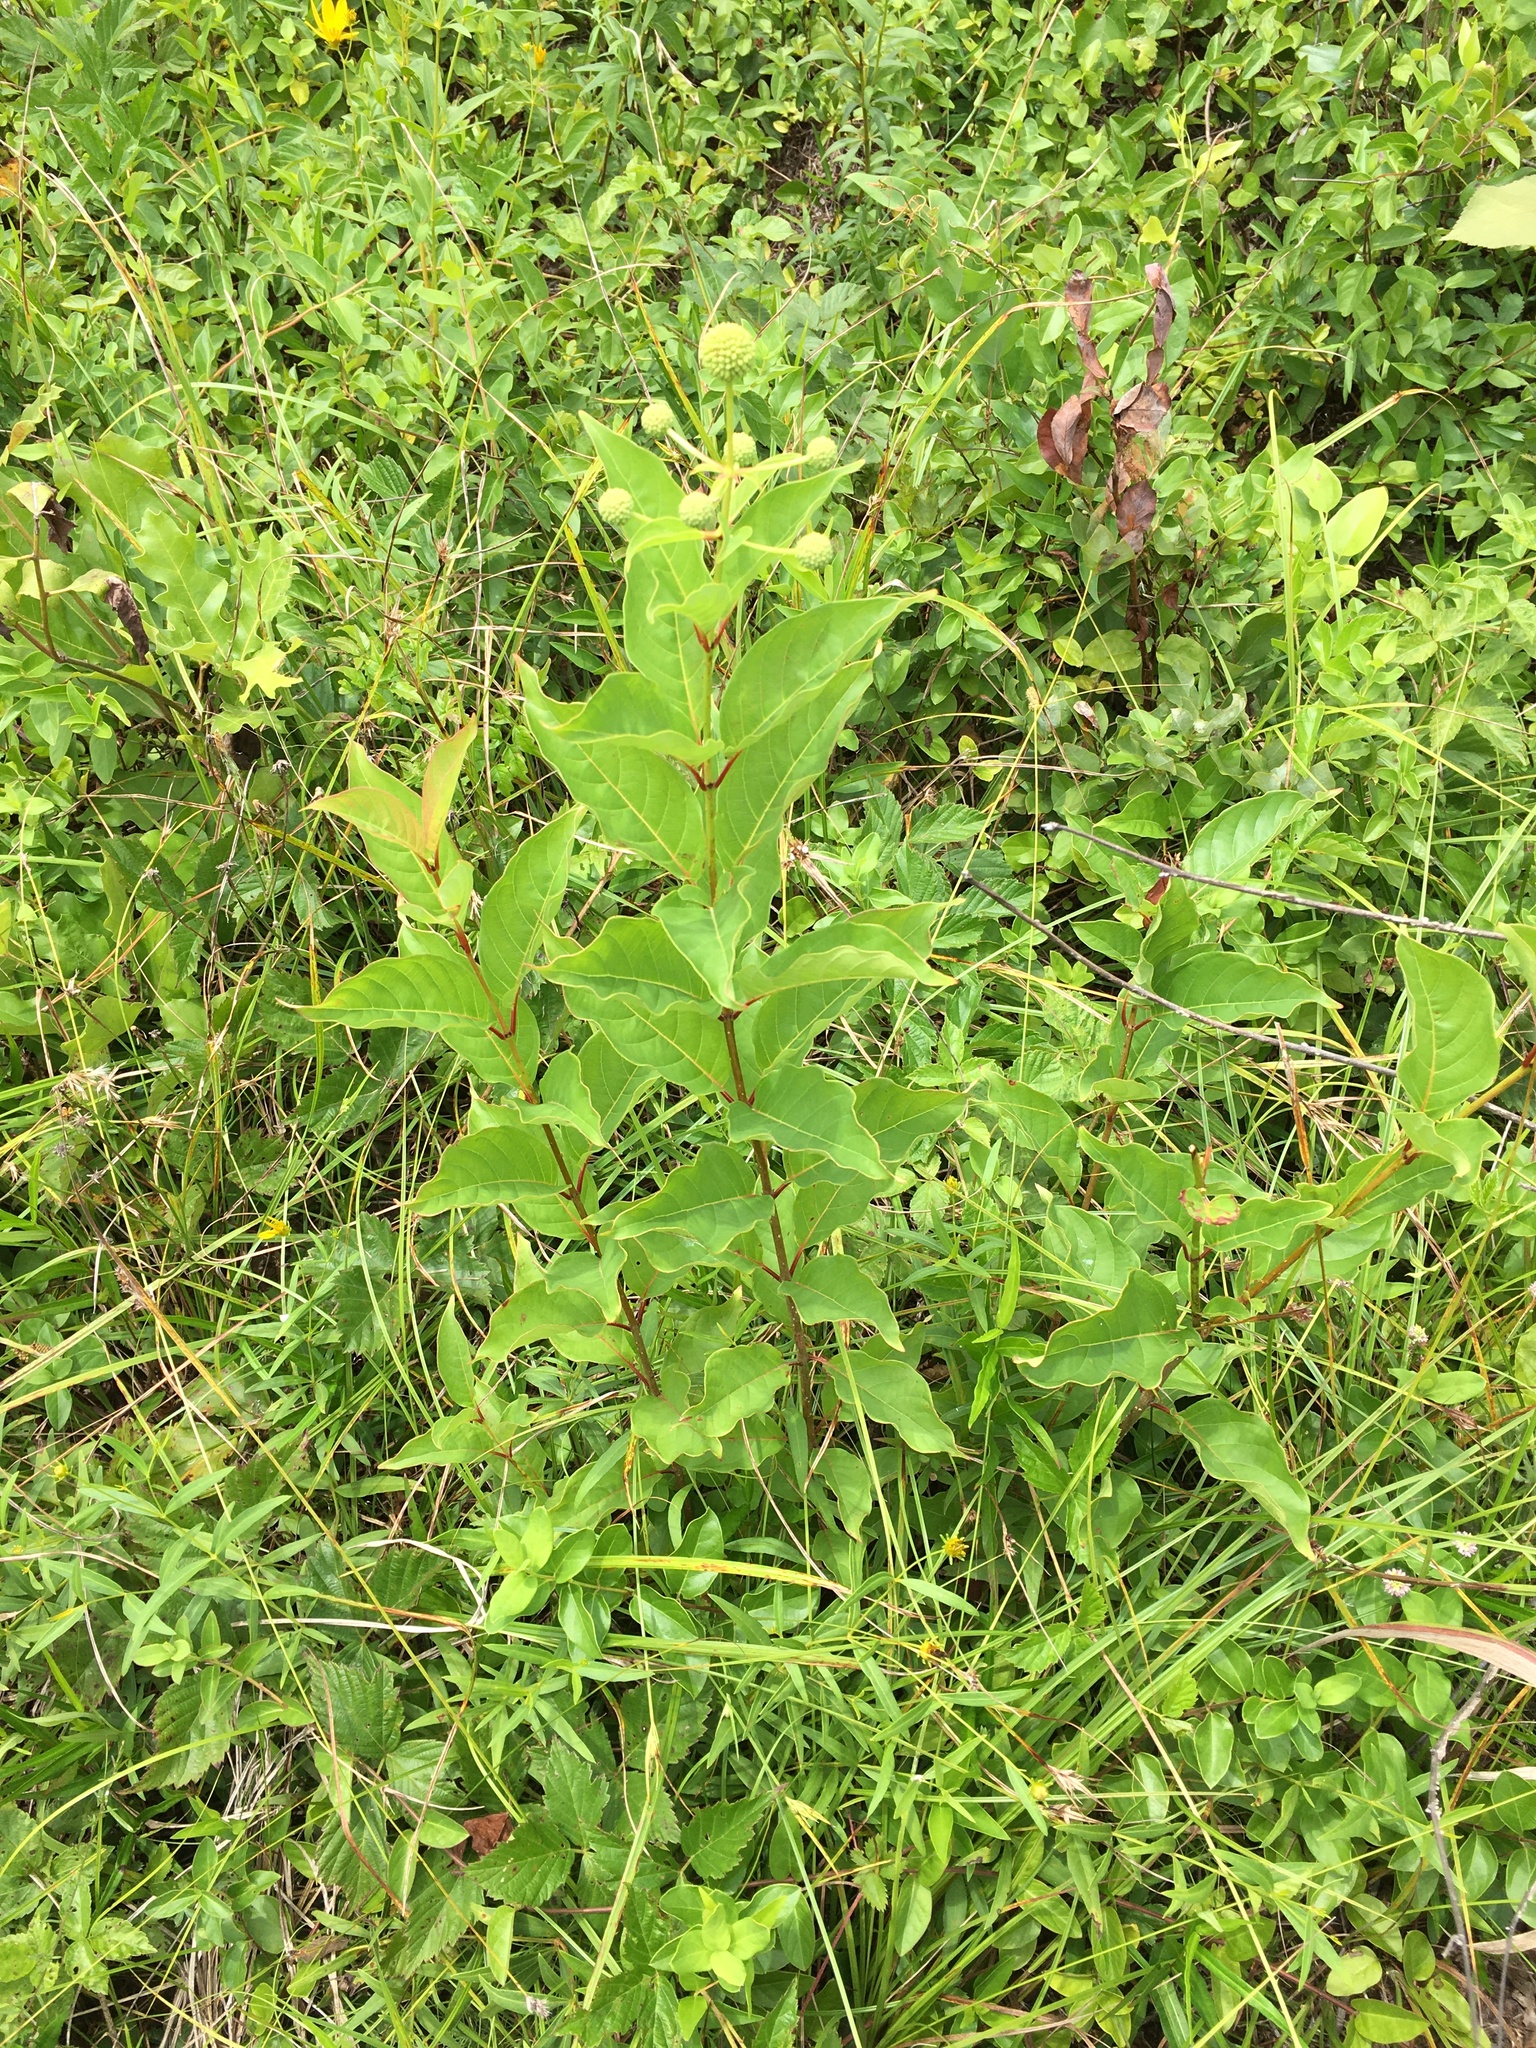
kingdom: Plantae
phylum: Tracheophyta
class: Magnoliopsida
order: Gentianales
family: Rubiaceae
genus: Cephalanthus
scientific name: Cephalanthus occidentalis
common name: Button-willow
